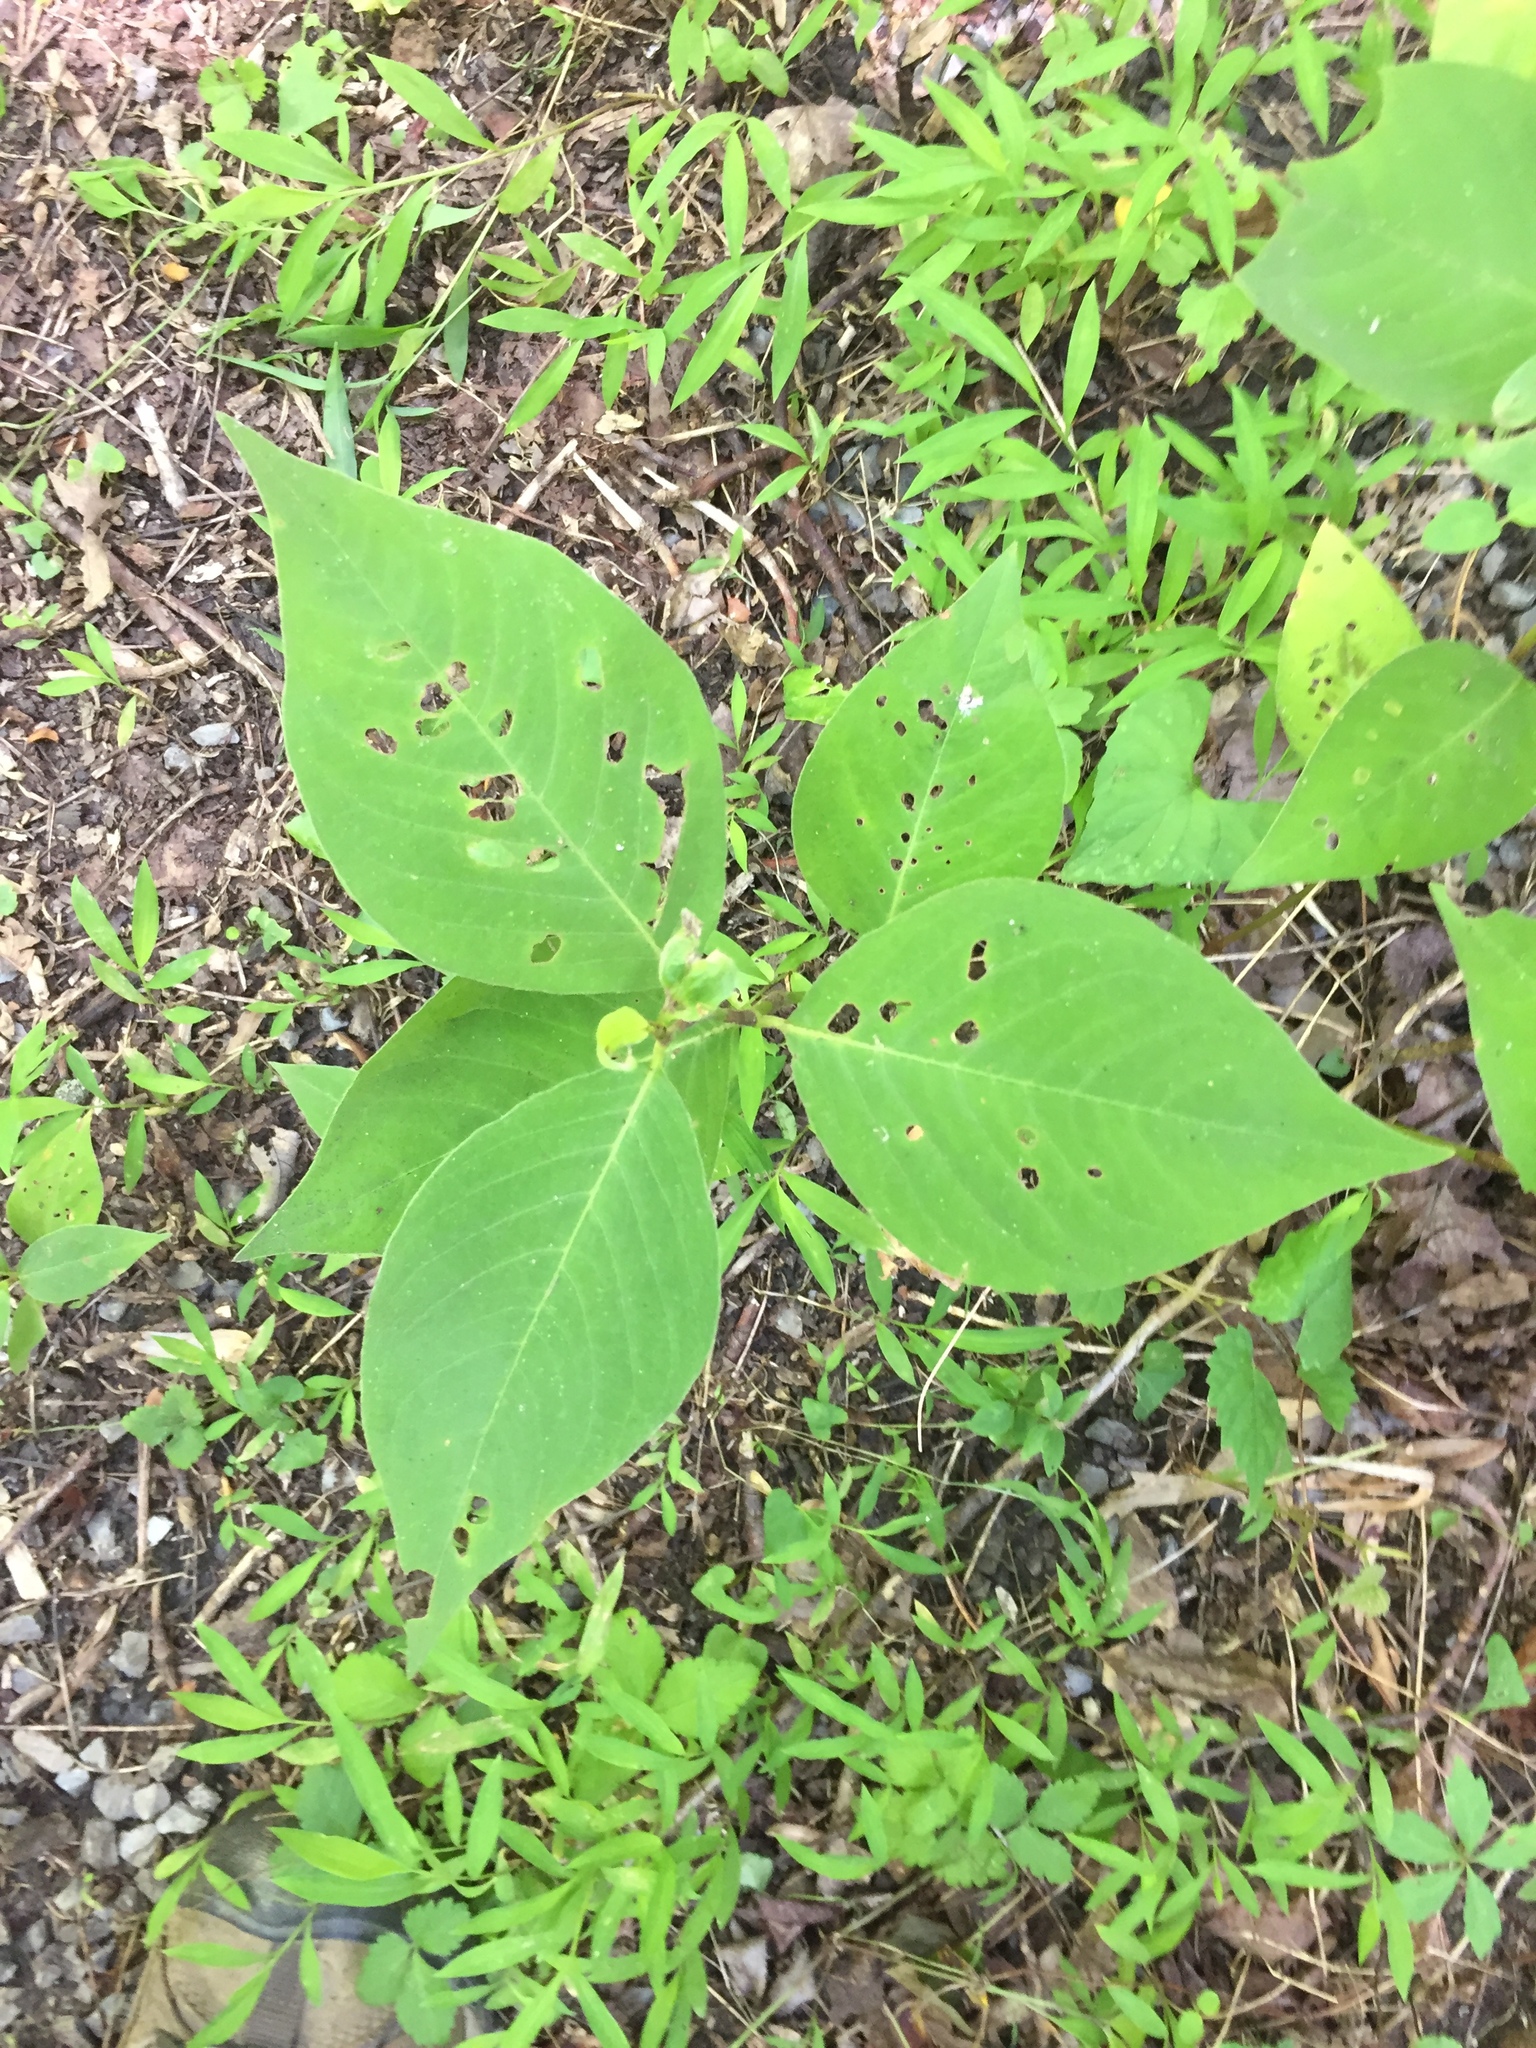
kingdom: Plantae
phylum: Tracheophyta
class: Magnoliopsida
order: Caryophyllales
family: Polygonaceae
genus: Persicaria
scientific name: Persicaria virginiana
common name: Jumpseed
